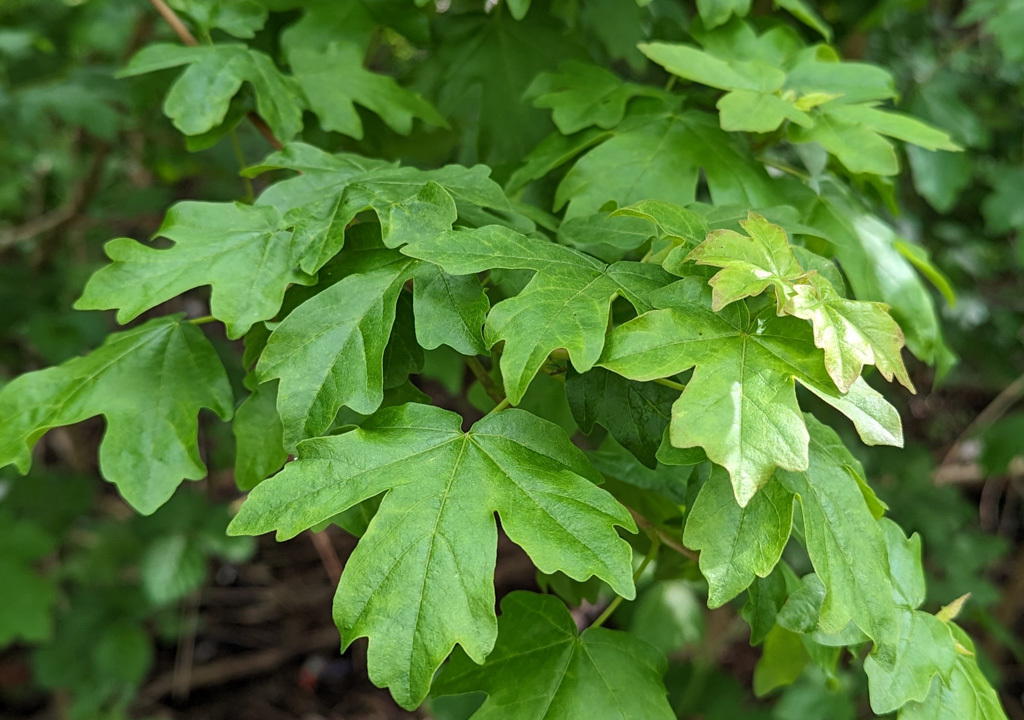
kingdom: Plantae
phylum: Tracheophyta
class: Magnoliopsida
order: Sapindales
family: Sapindaceae
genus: Acer
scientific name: Acer campestre
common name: Field maple
